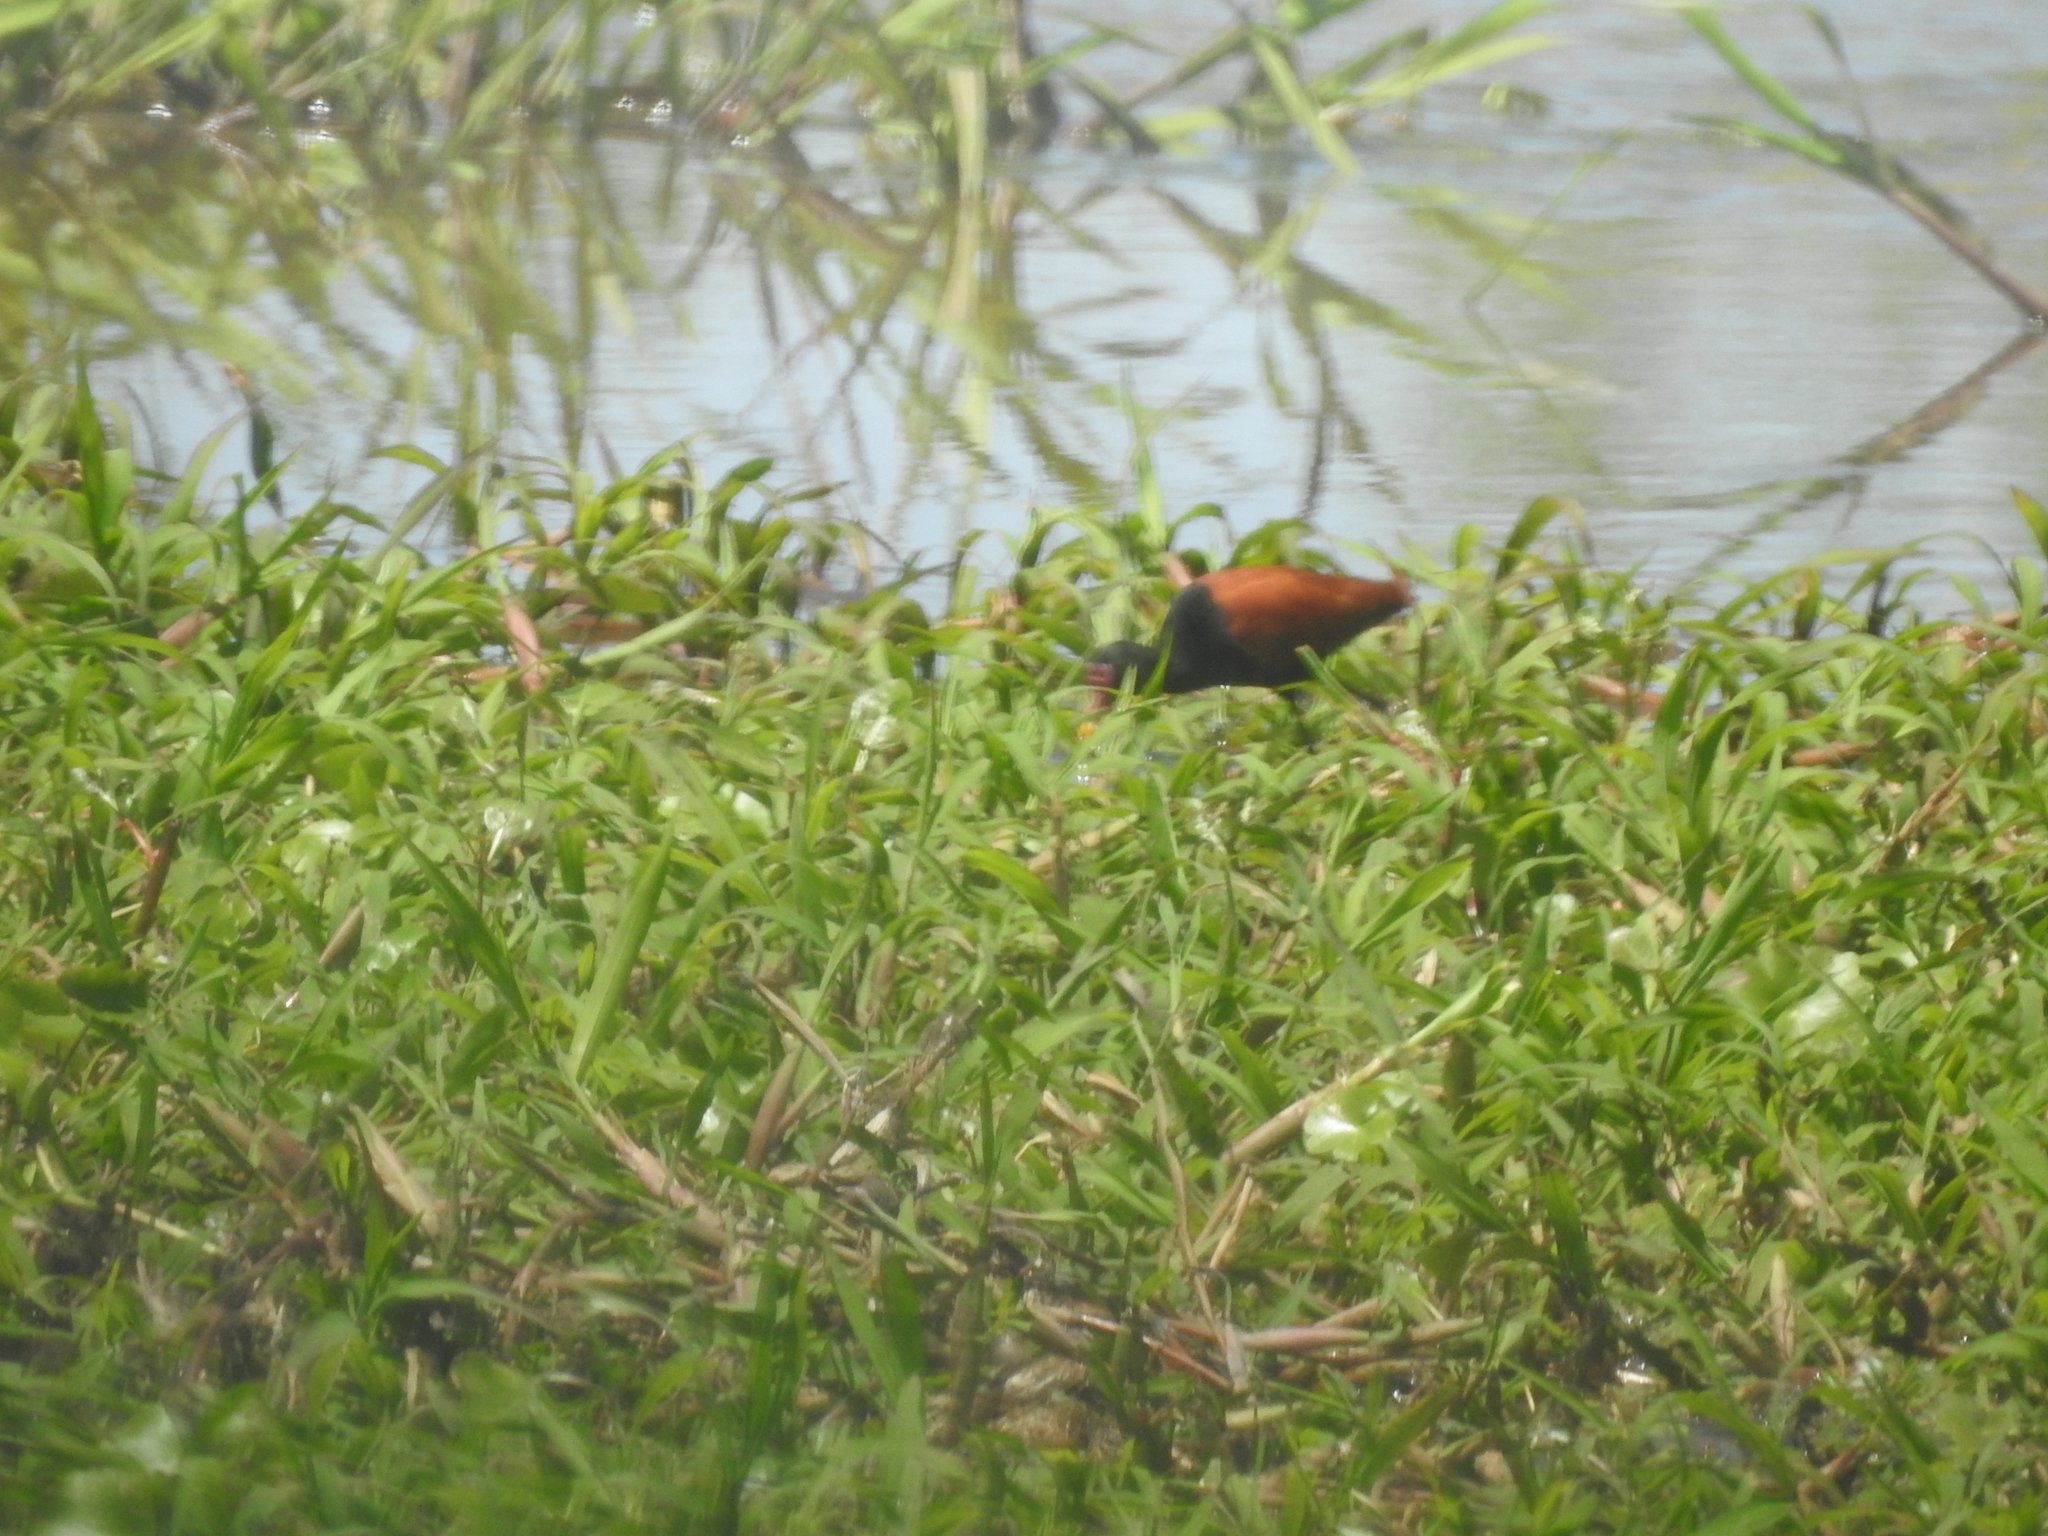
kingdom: Animalia
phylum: Chordata
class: Aves
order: Charadriiformes
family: Jacanidae
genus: Jacana
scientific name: Jacana jacana
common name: Wattled jacana
